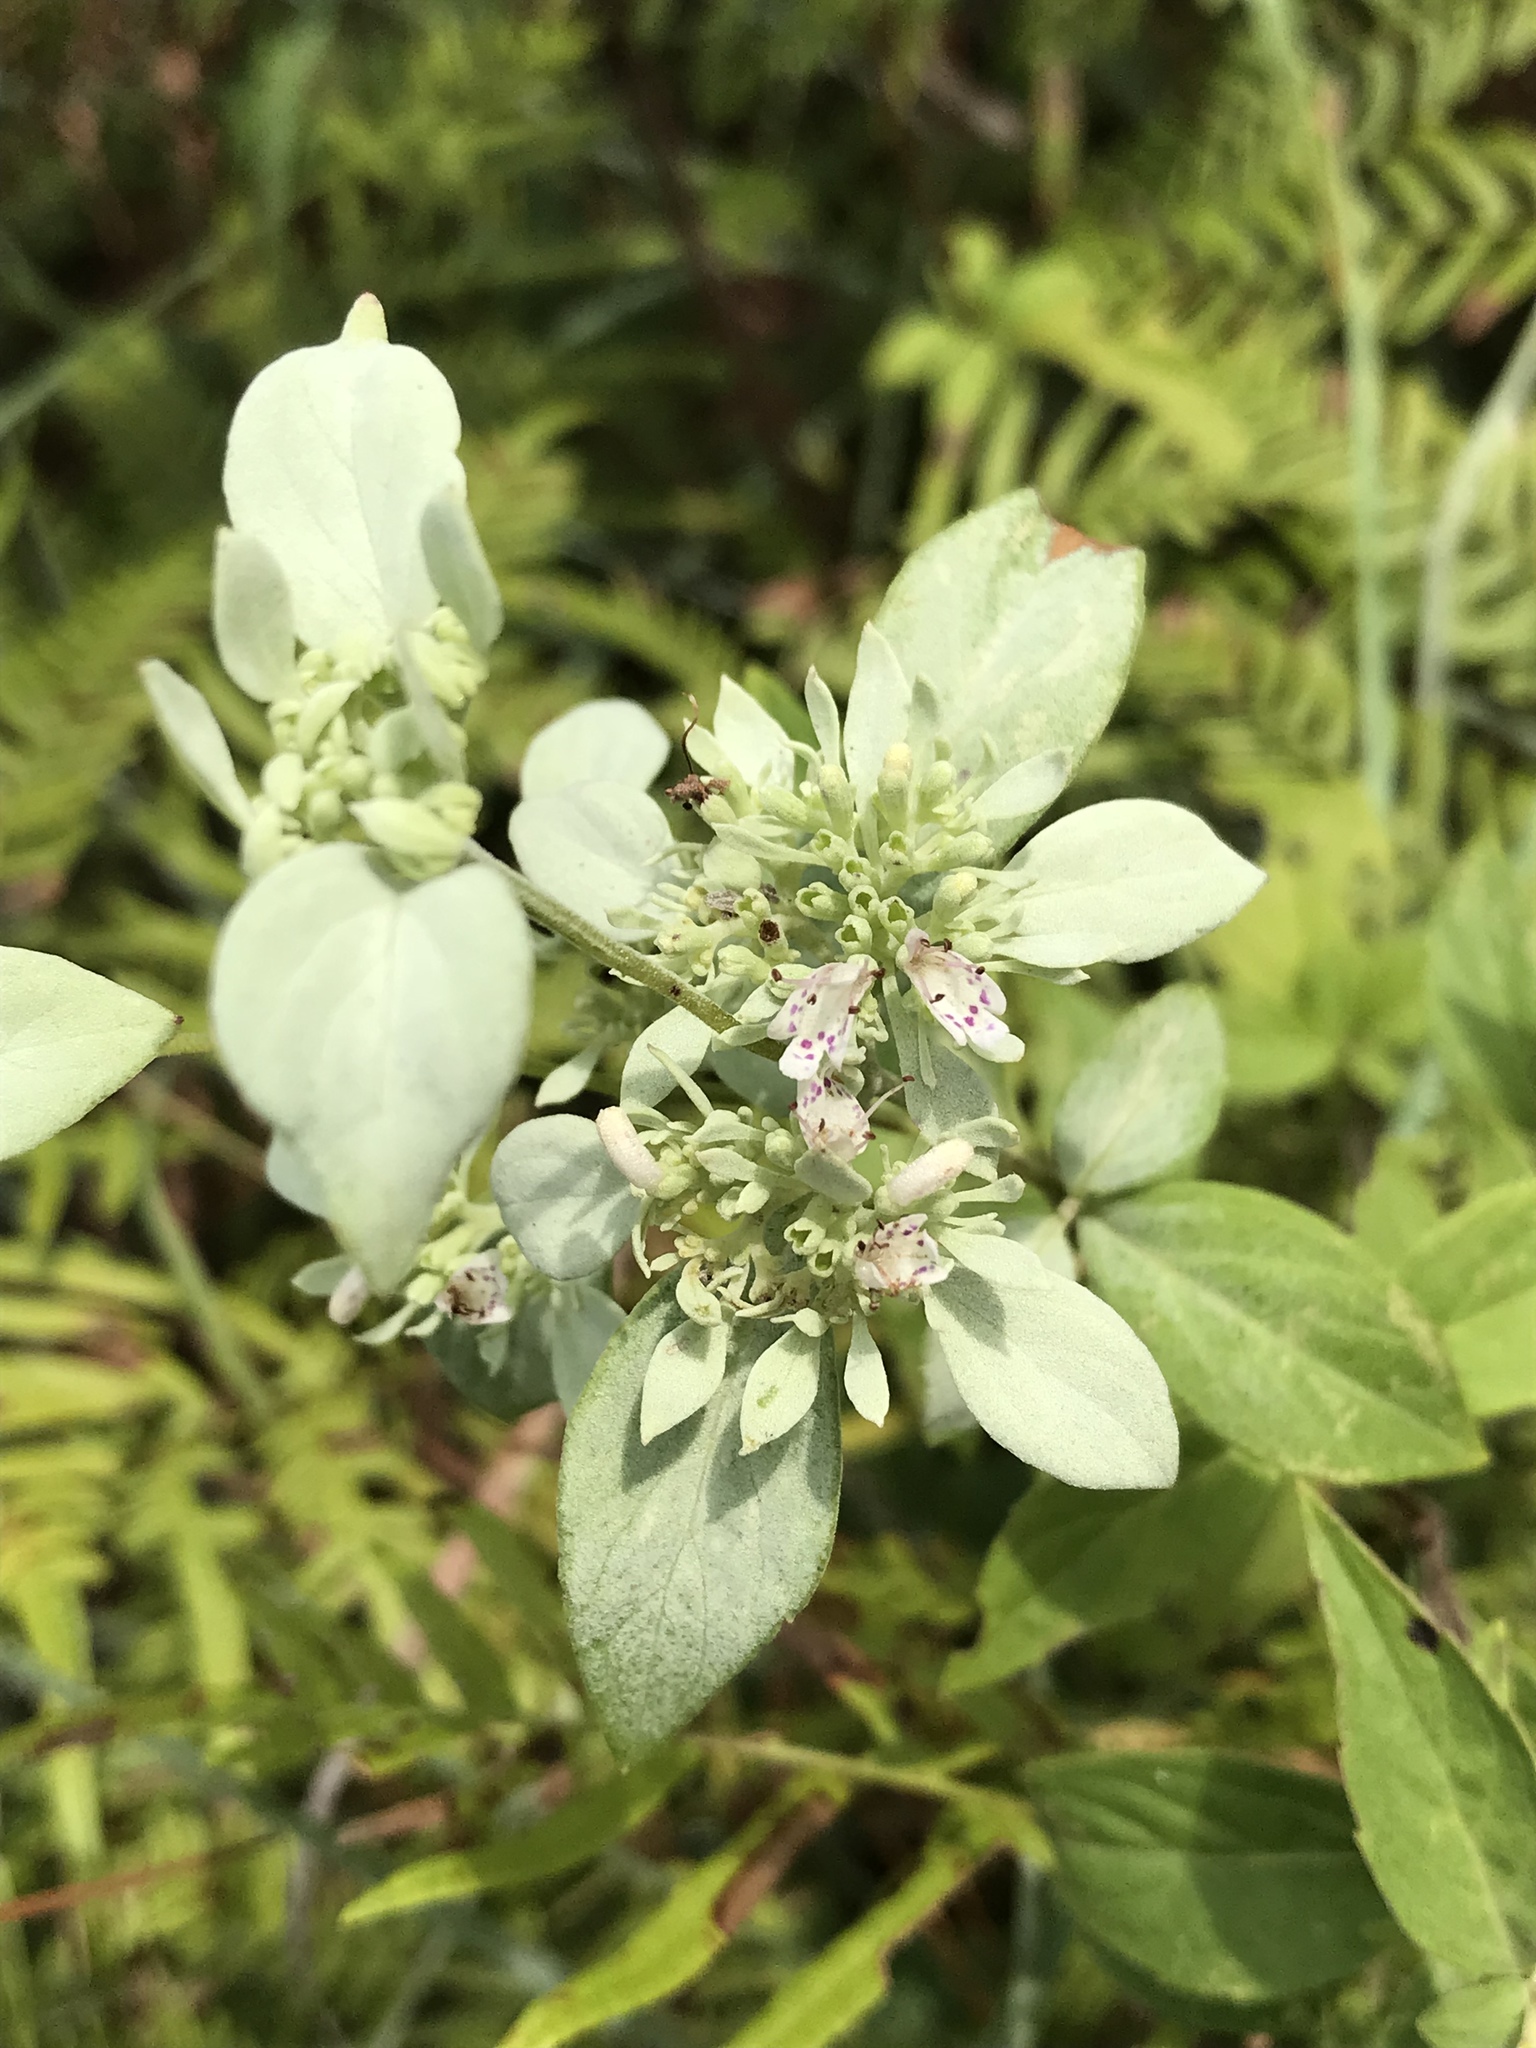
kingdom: Plantae
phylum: Tracheophyta
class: Magnoliopsida
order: Lamiales
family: Lamiaceae
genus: Pycnanthemum
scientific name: Pycnanthemum albescens
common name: White-leaf mountain-mint
